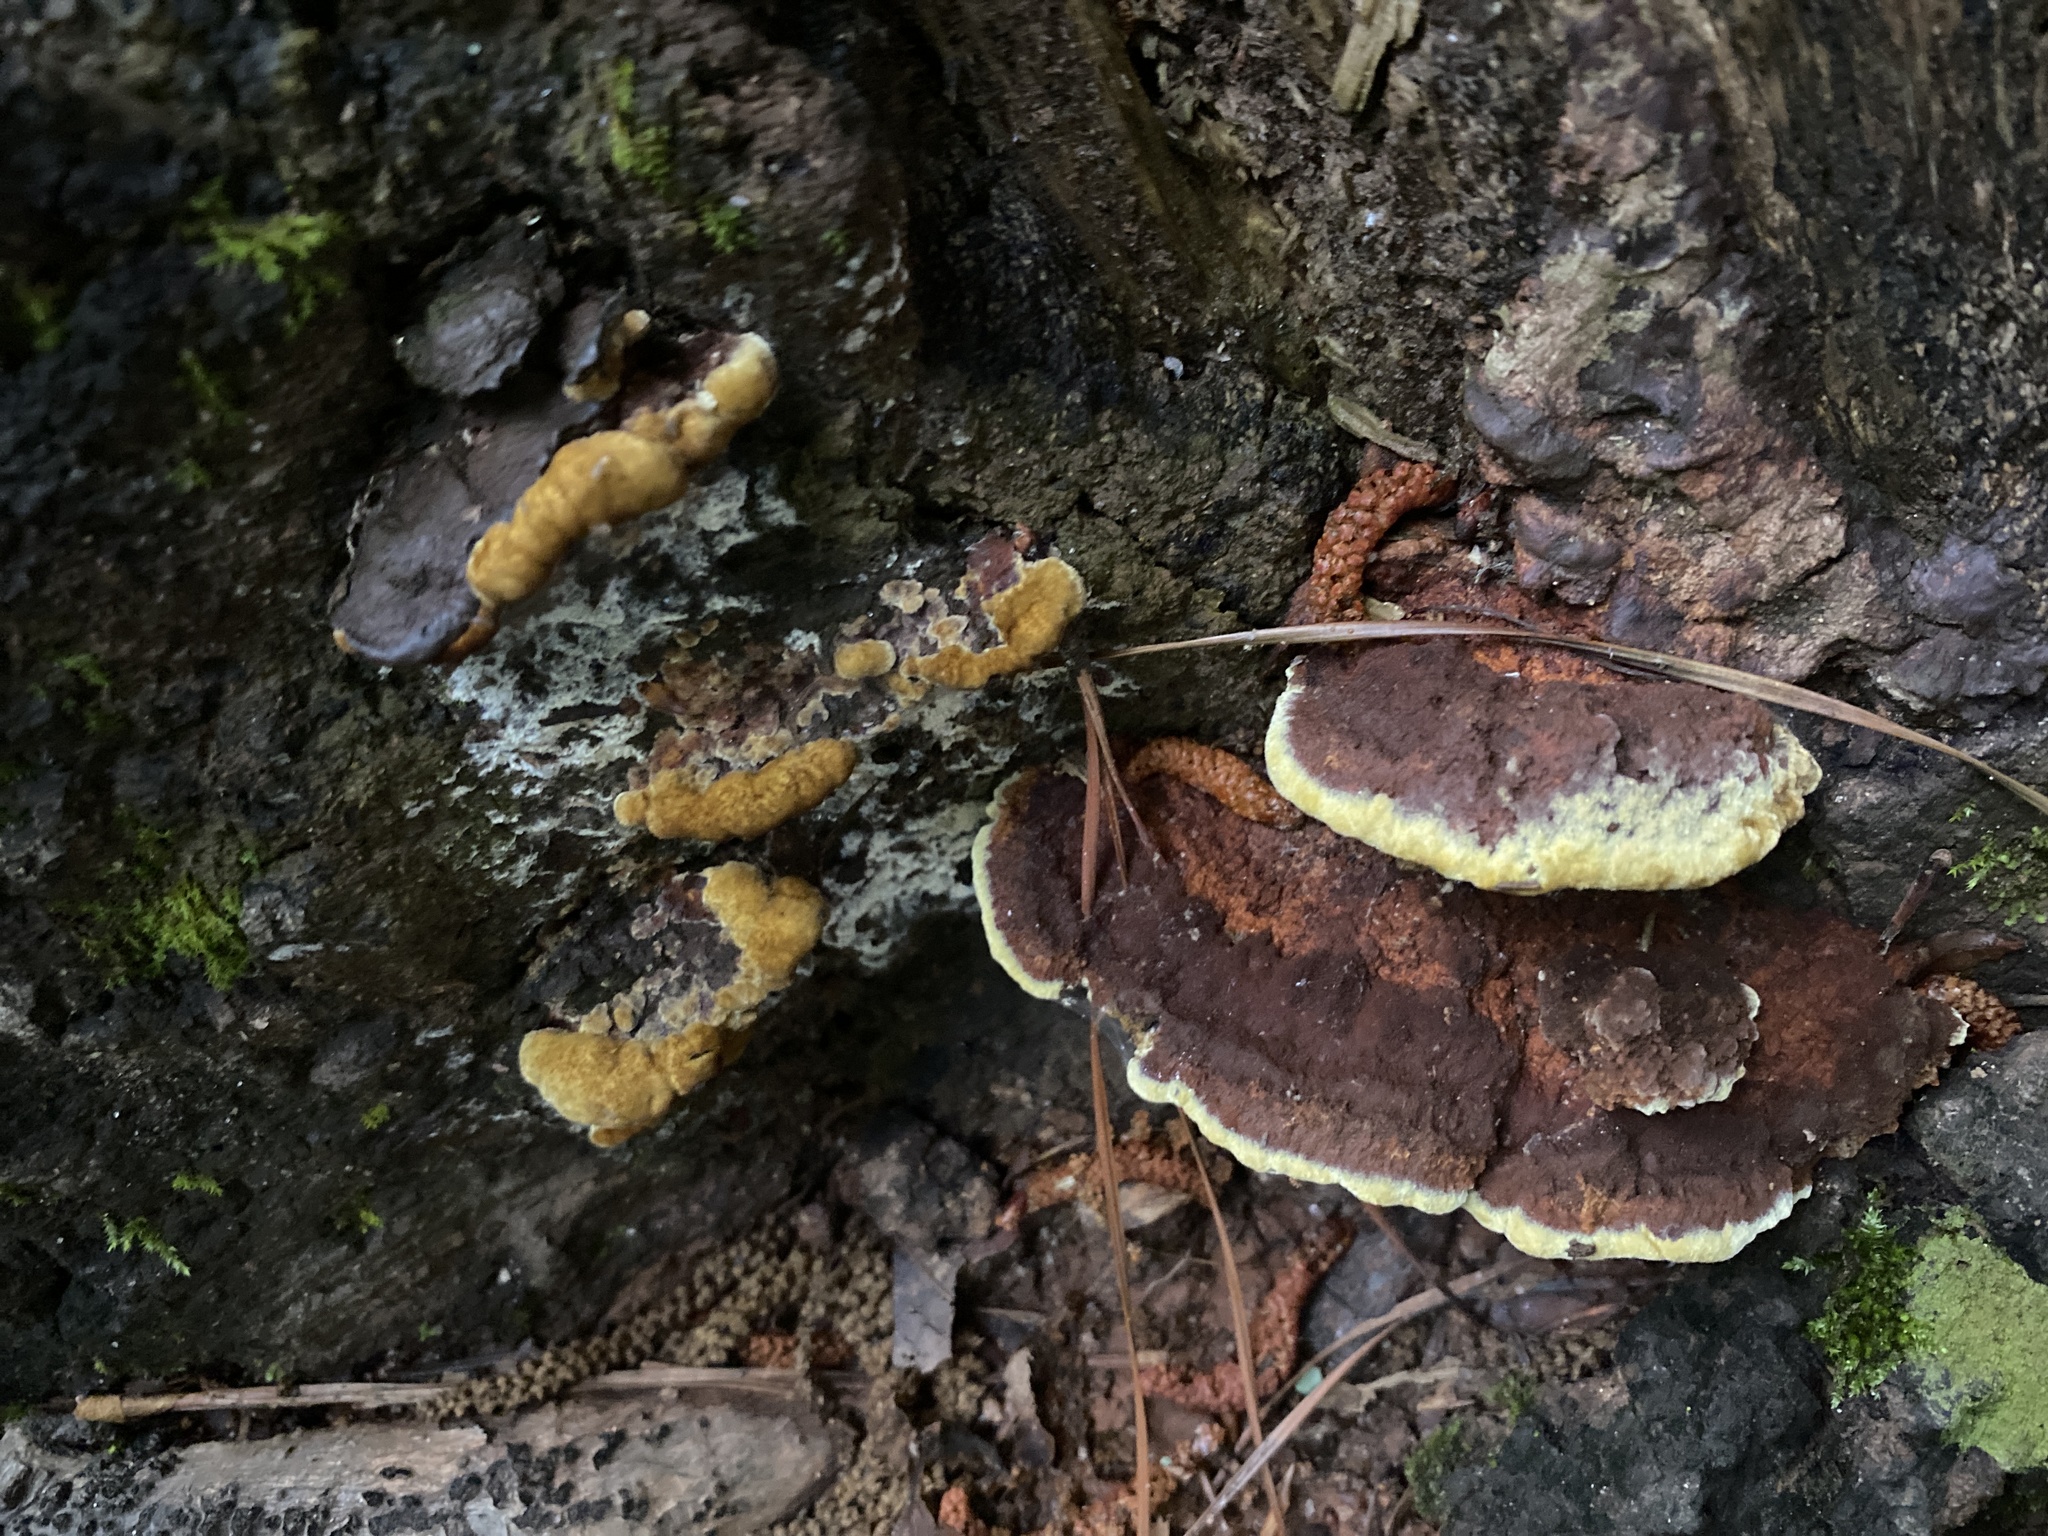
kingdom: Fungi
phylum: Basidiomycota
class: Agaricomycetes
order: Hymenochaetales
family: Hymenochaetaceae
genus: Phellinus
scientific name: Phellinus gilvus
